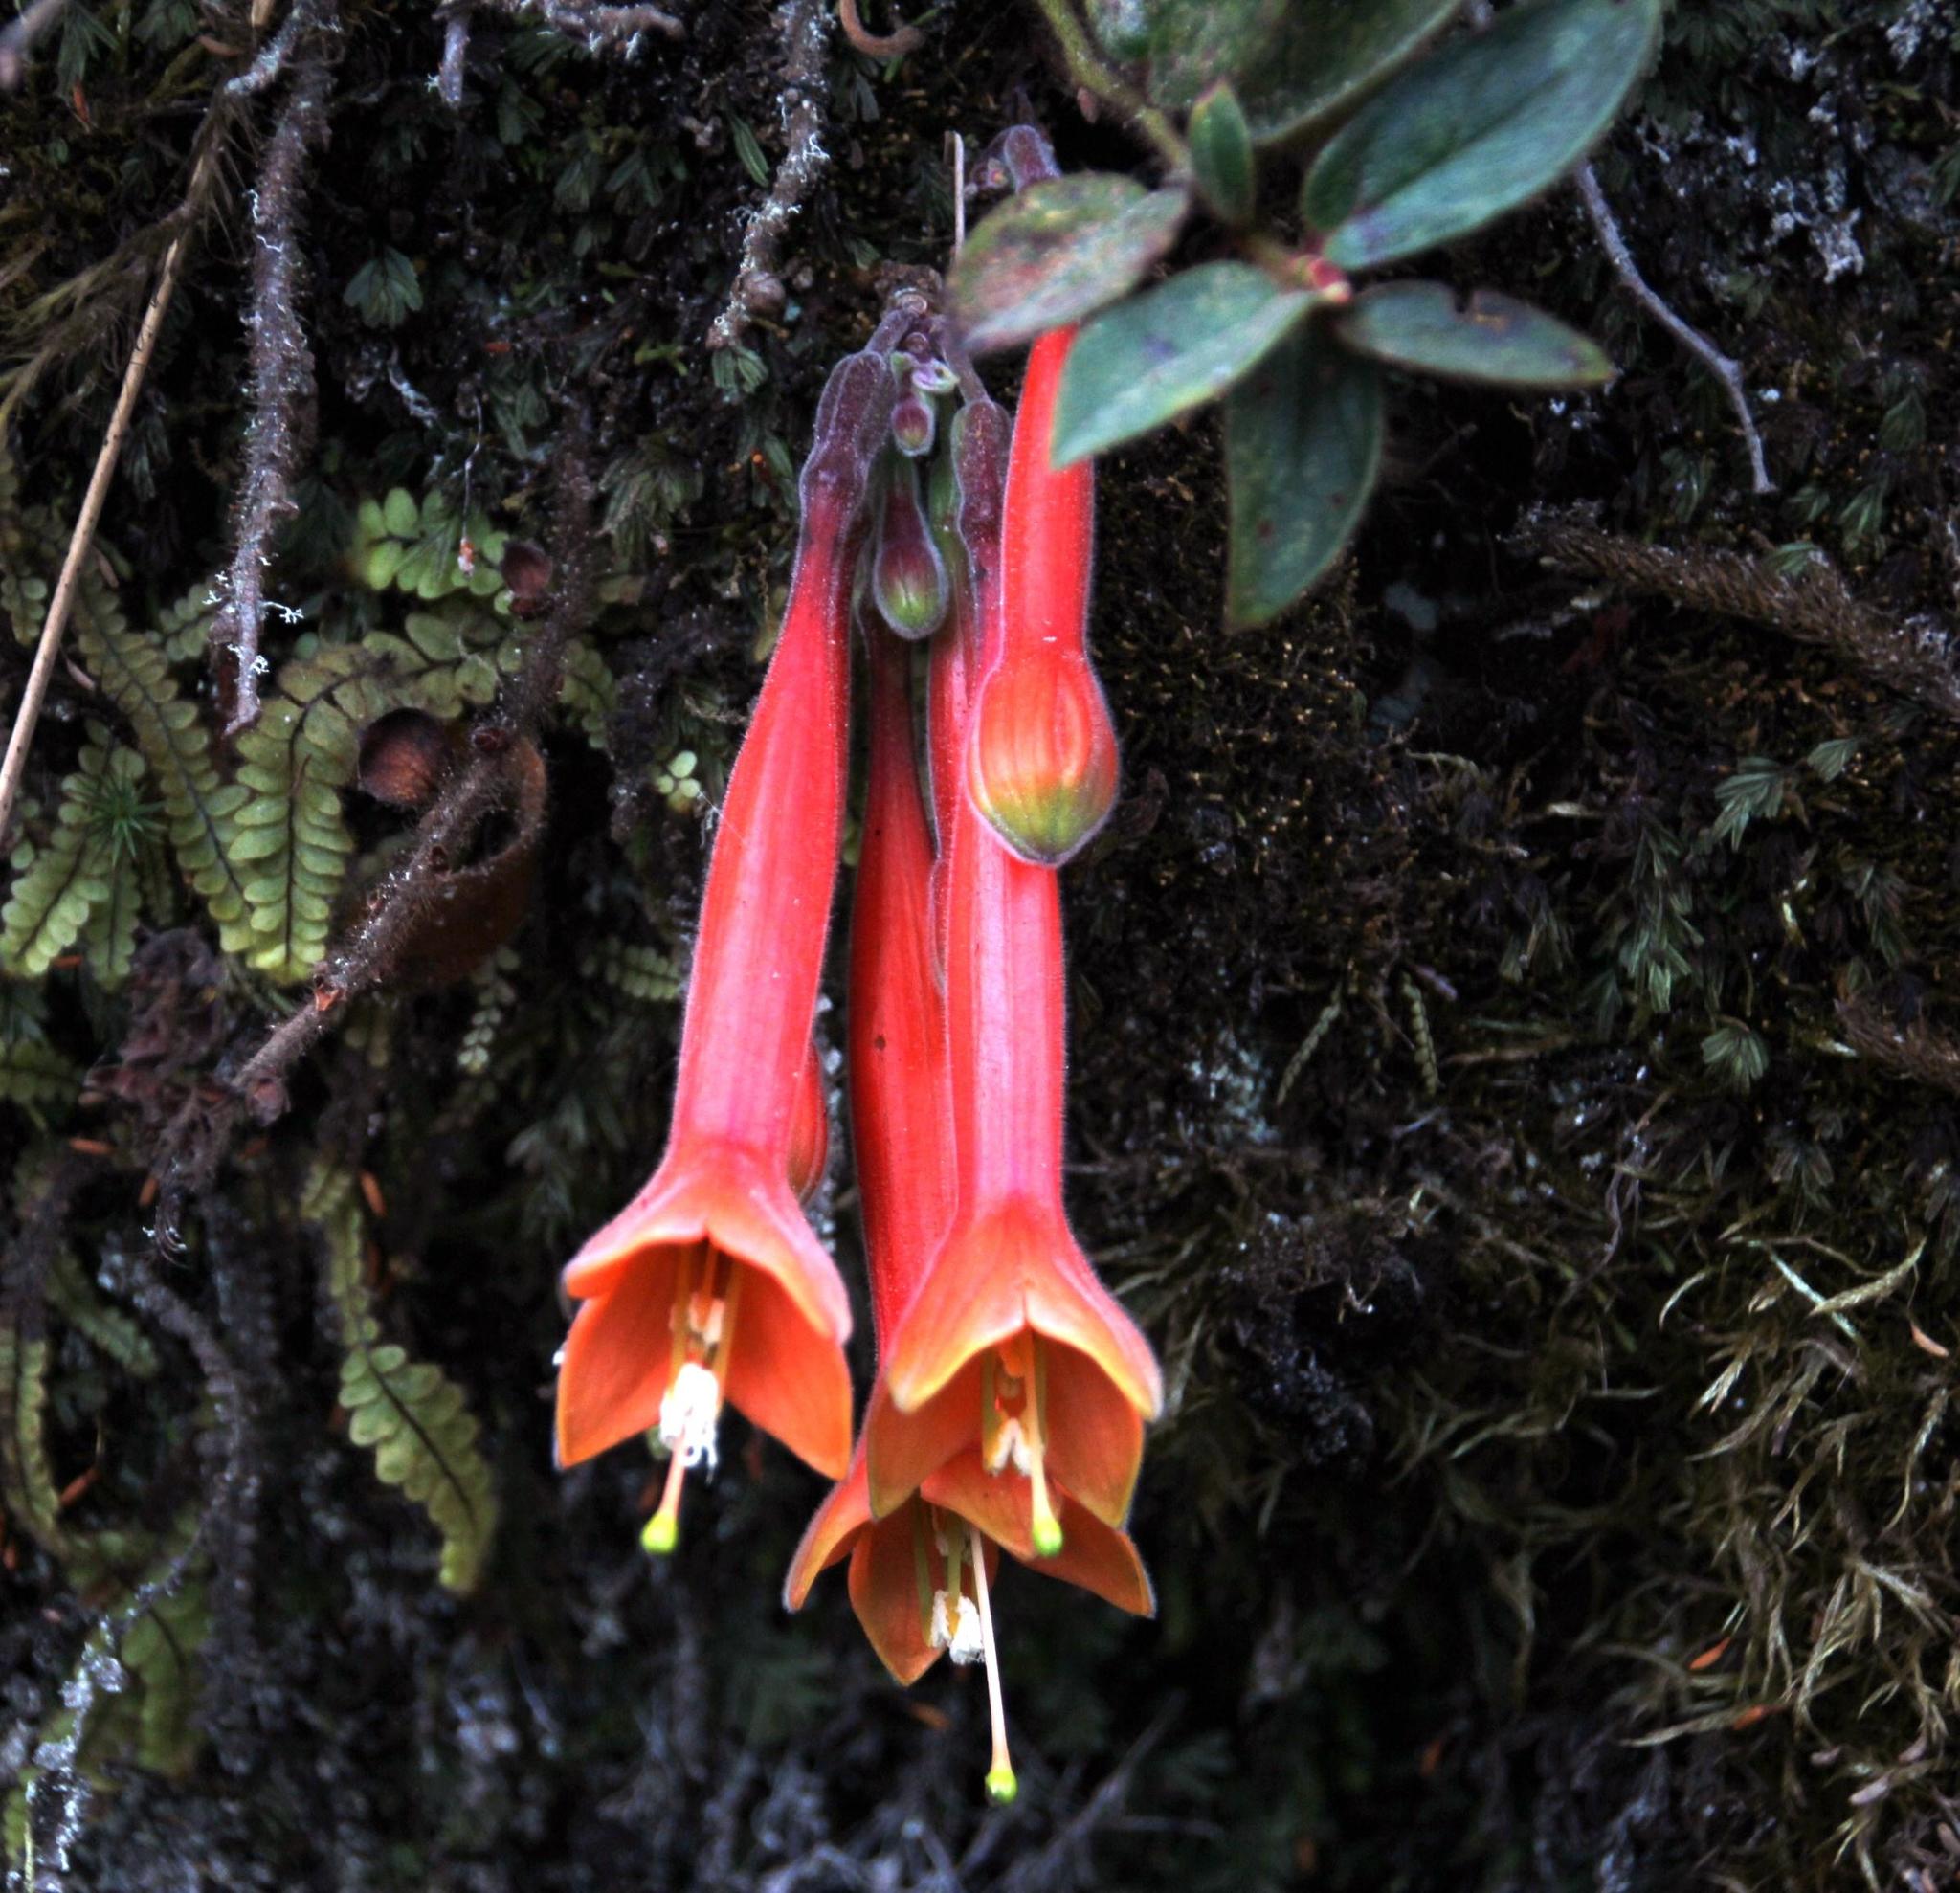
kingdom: Plantae
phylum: Tracheophyta
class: Magnoliopsida
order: Myrtales
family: Onagraceae
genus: Fuchsia
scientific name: Fuchsia apetala
